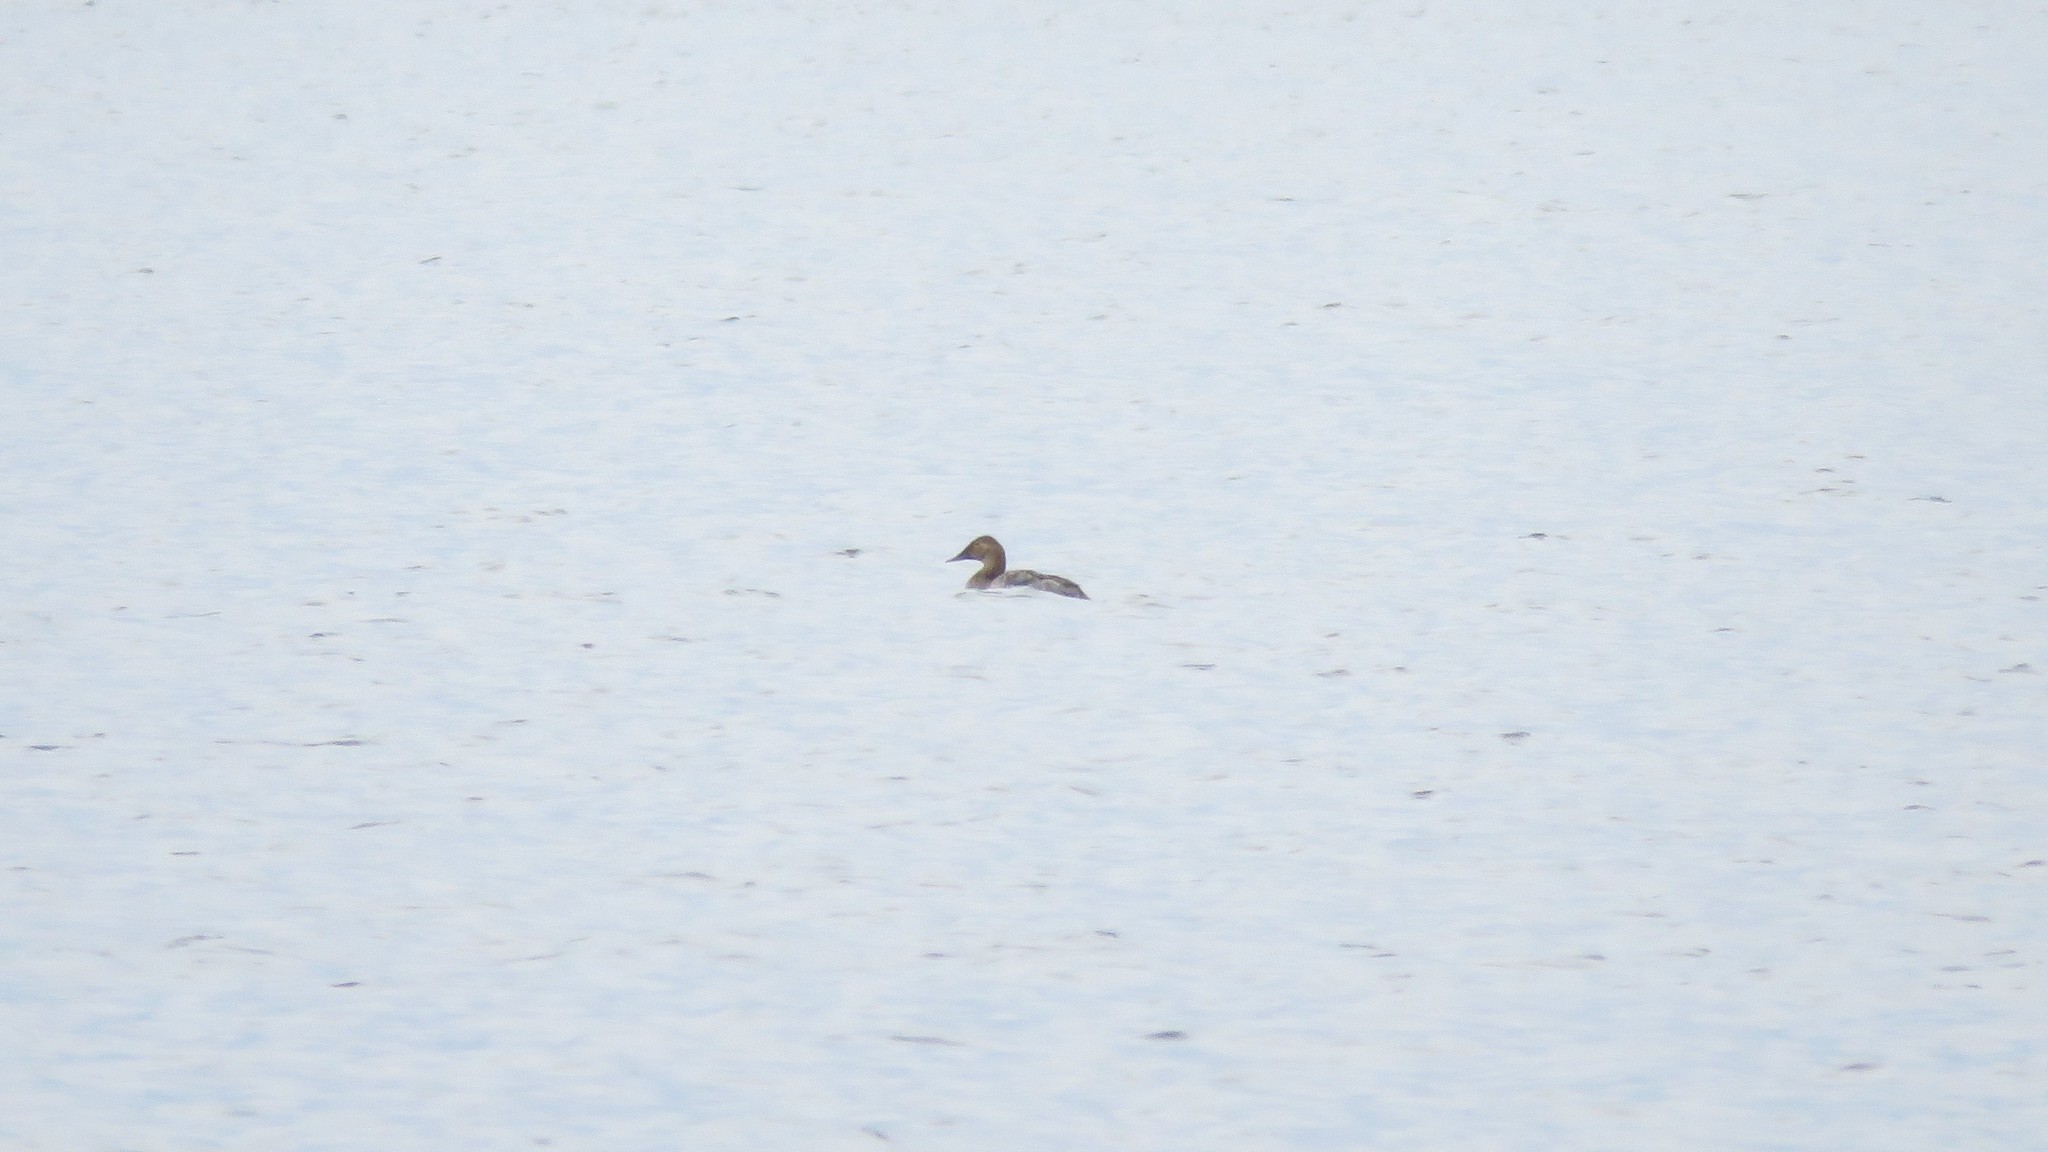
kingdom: Animalia
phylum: Chordata
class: Aves
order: Anseriformes
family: Anatidae
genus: Aythya
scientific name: Aythya valisineria
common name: Canvasback
